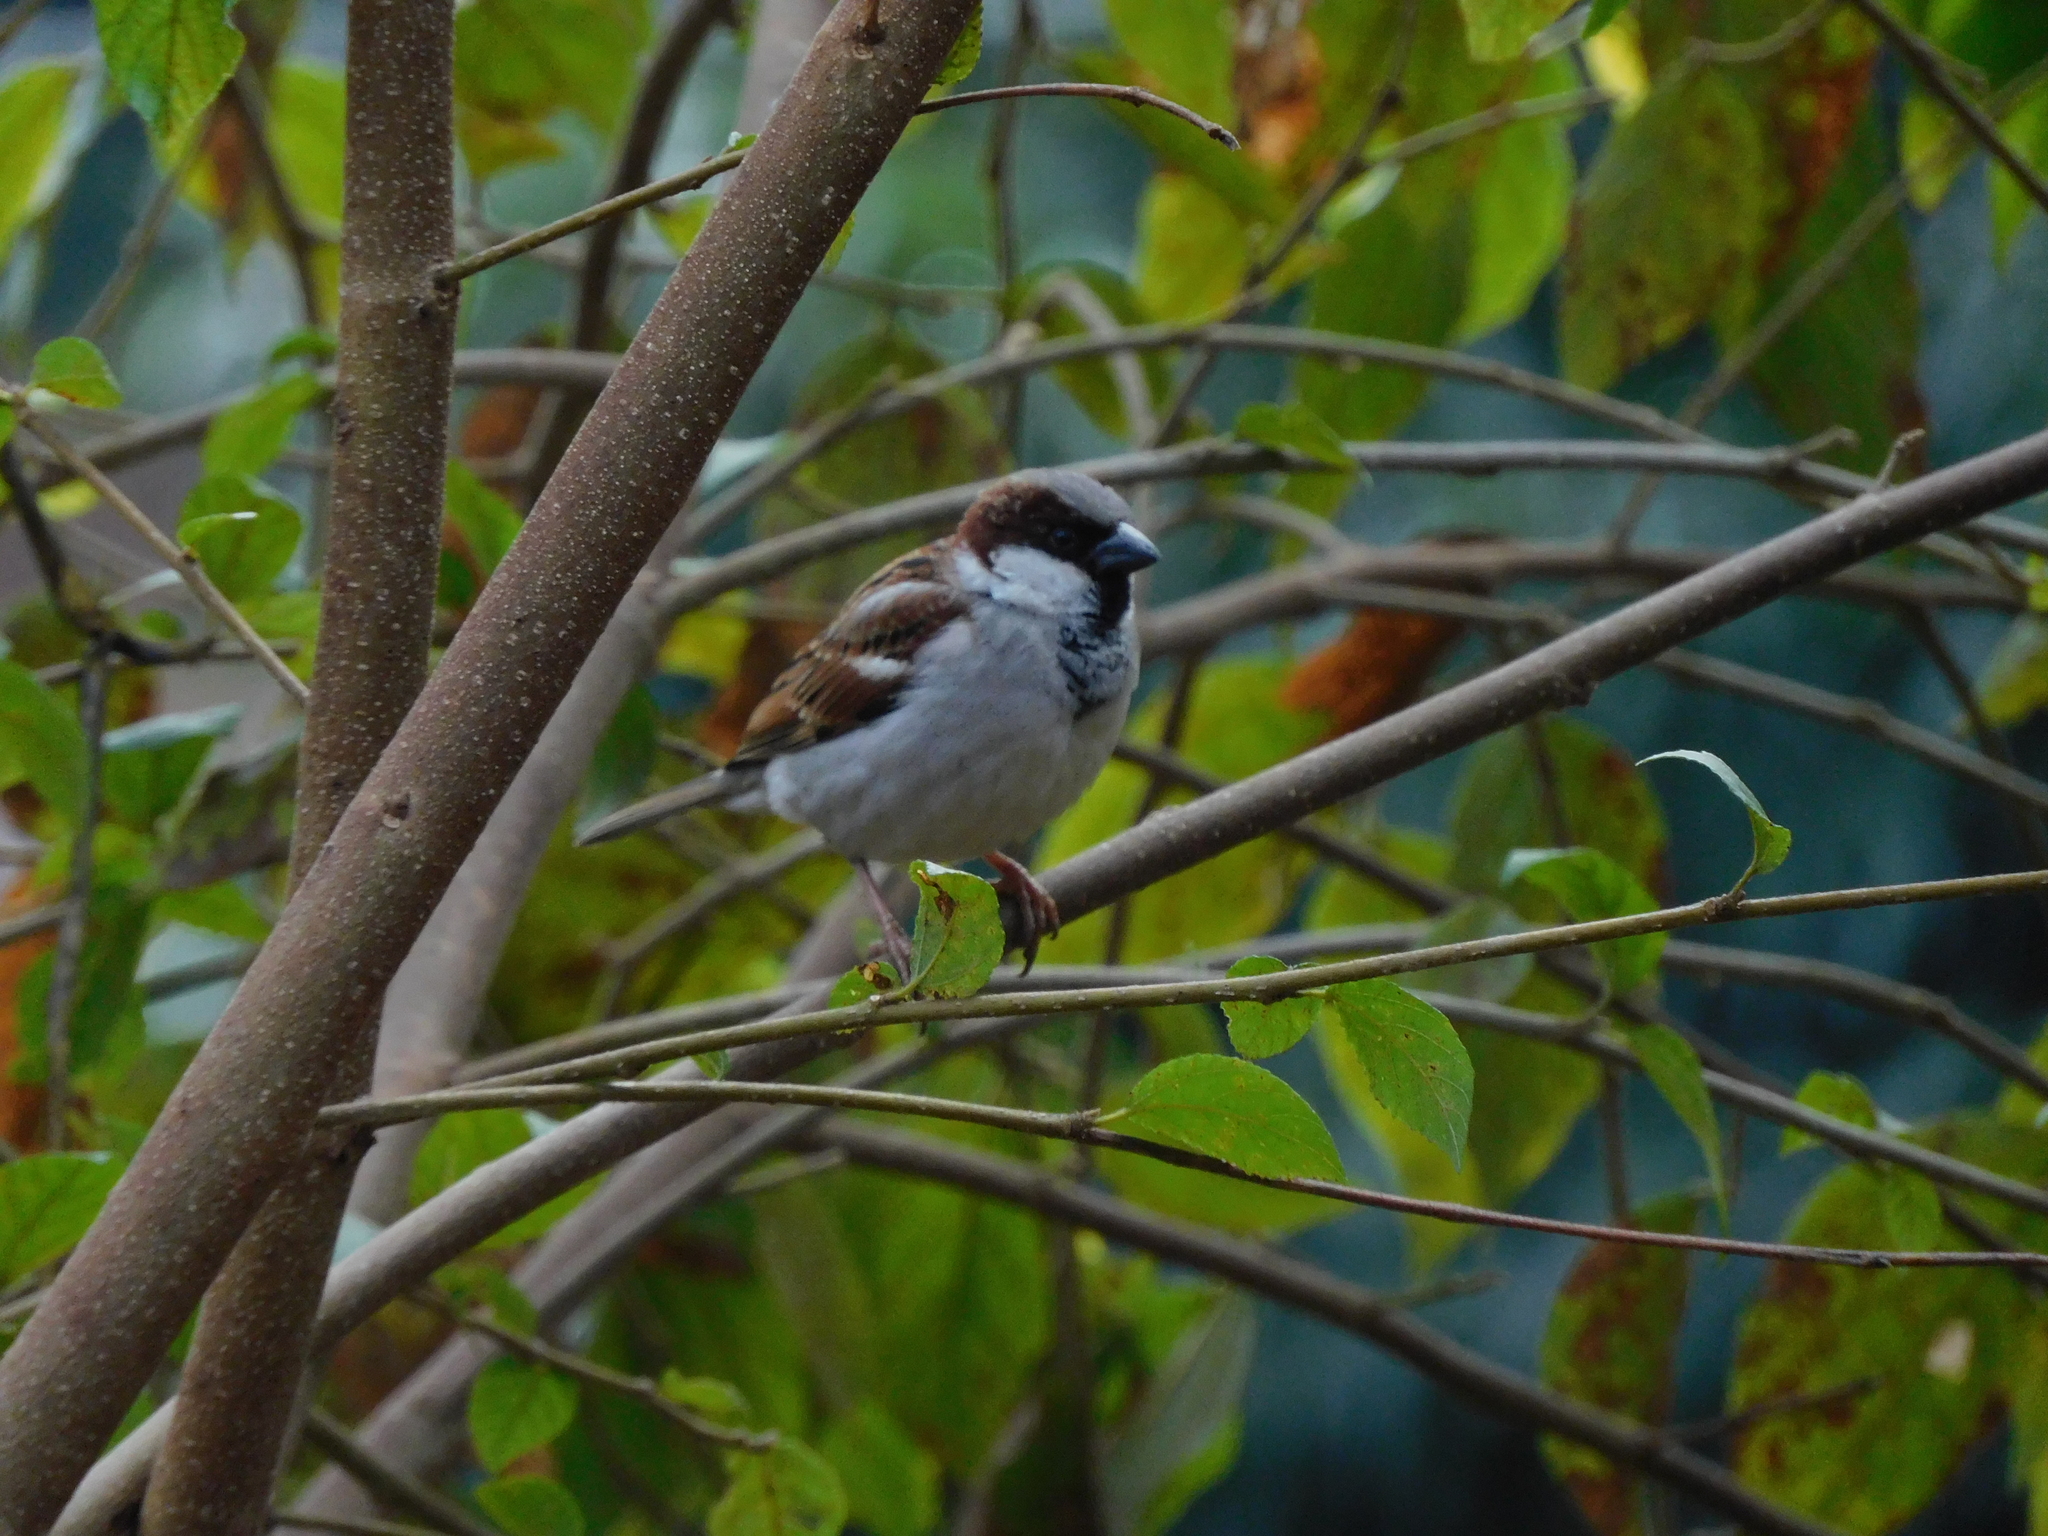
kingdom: Animalia
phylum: Chordata
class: Aves
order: Passeriformes
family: Passeridae
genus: Passer
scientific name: Passer domesticus
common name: House sparrow
